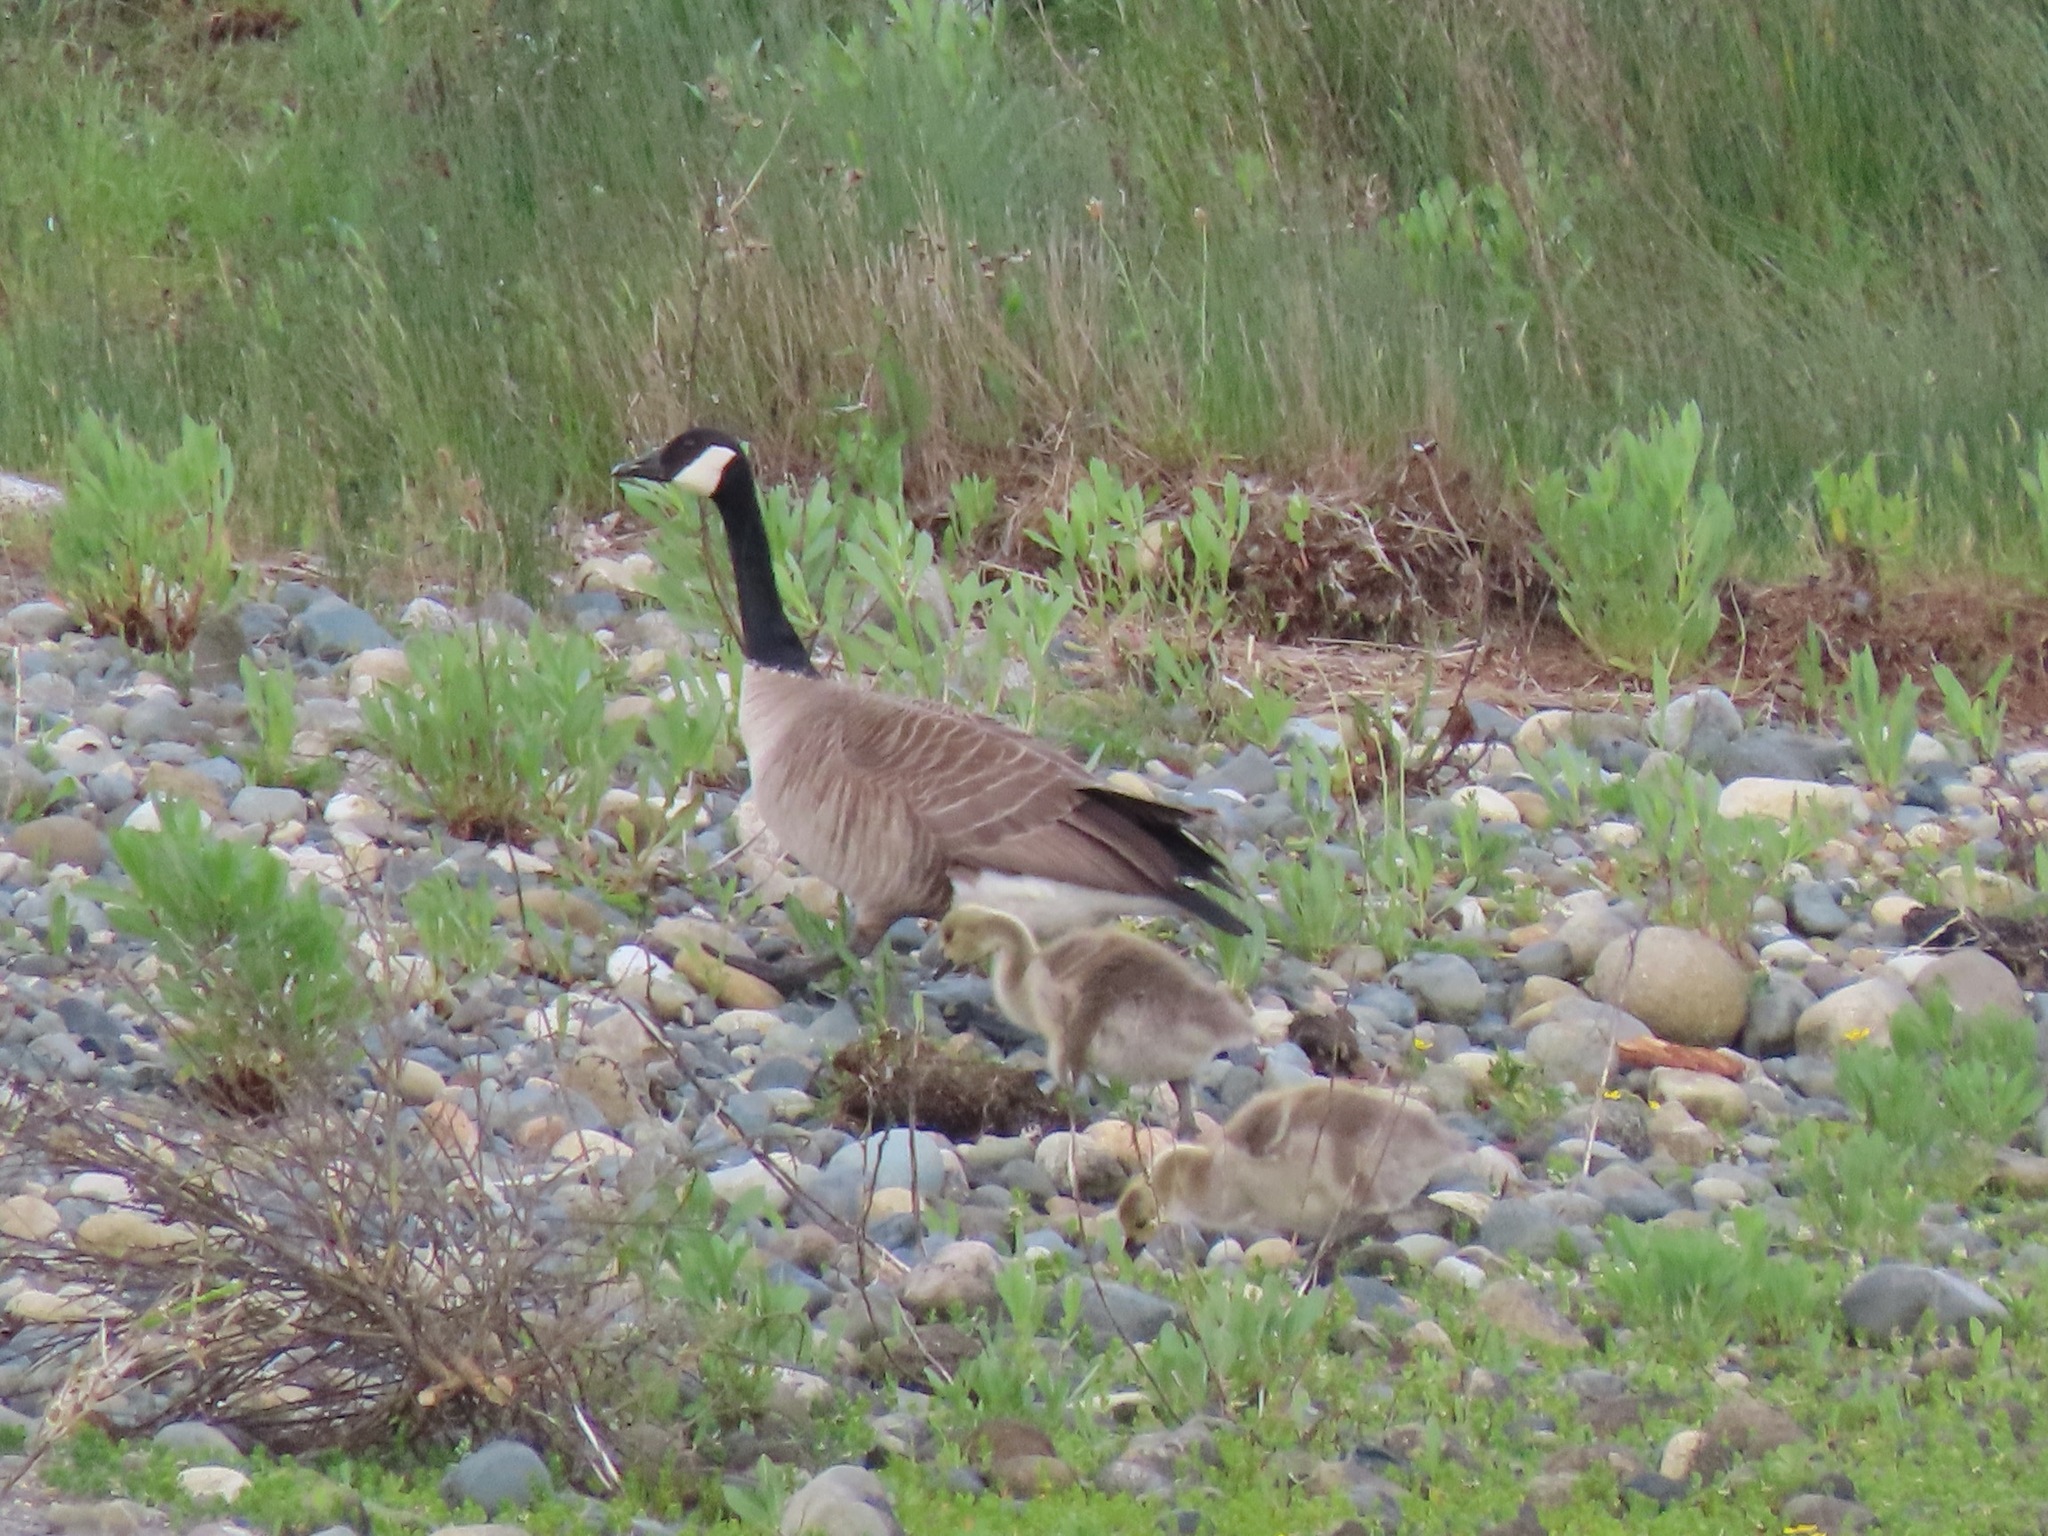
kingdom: Animalia
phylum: Chordata
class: Aves
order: Anseriformes
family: Anatidae
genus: Branta
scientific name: Branta canadensis
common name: Canada goose
